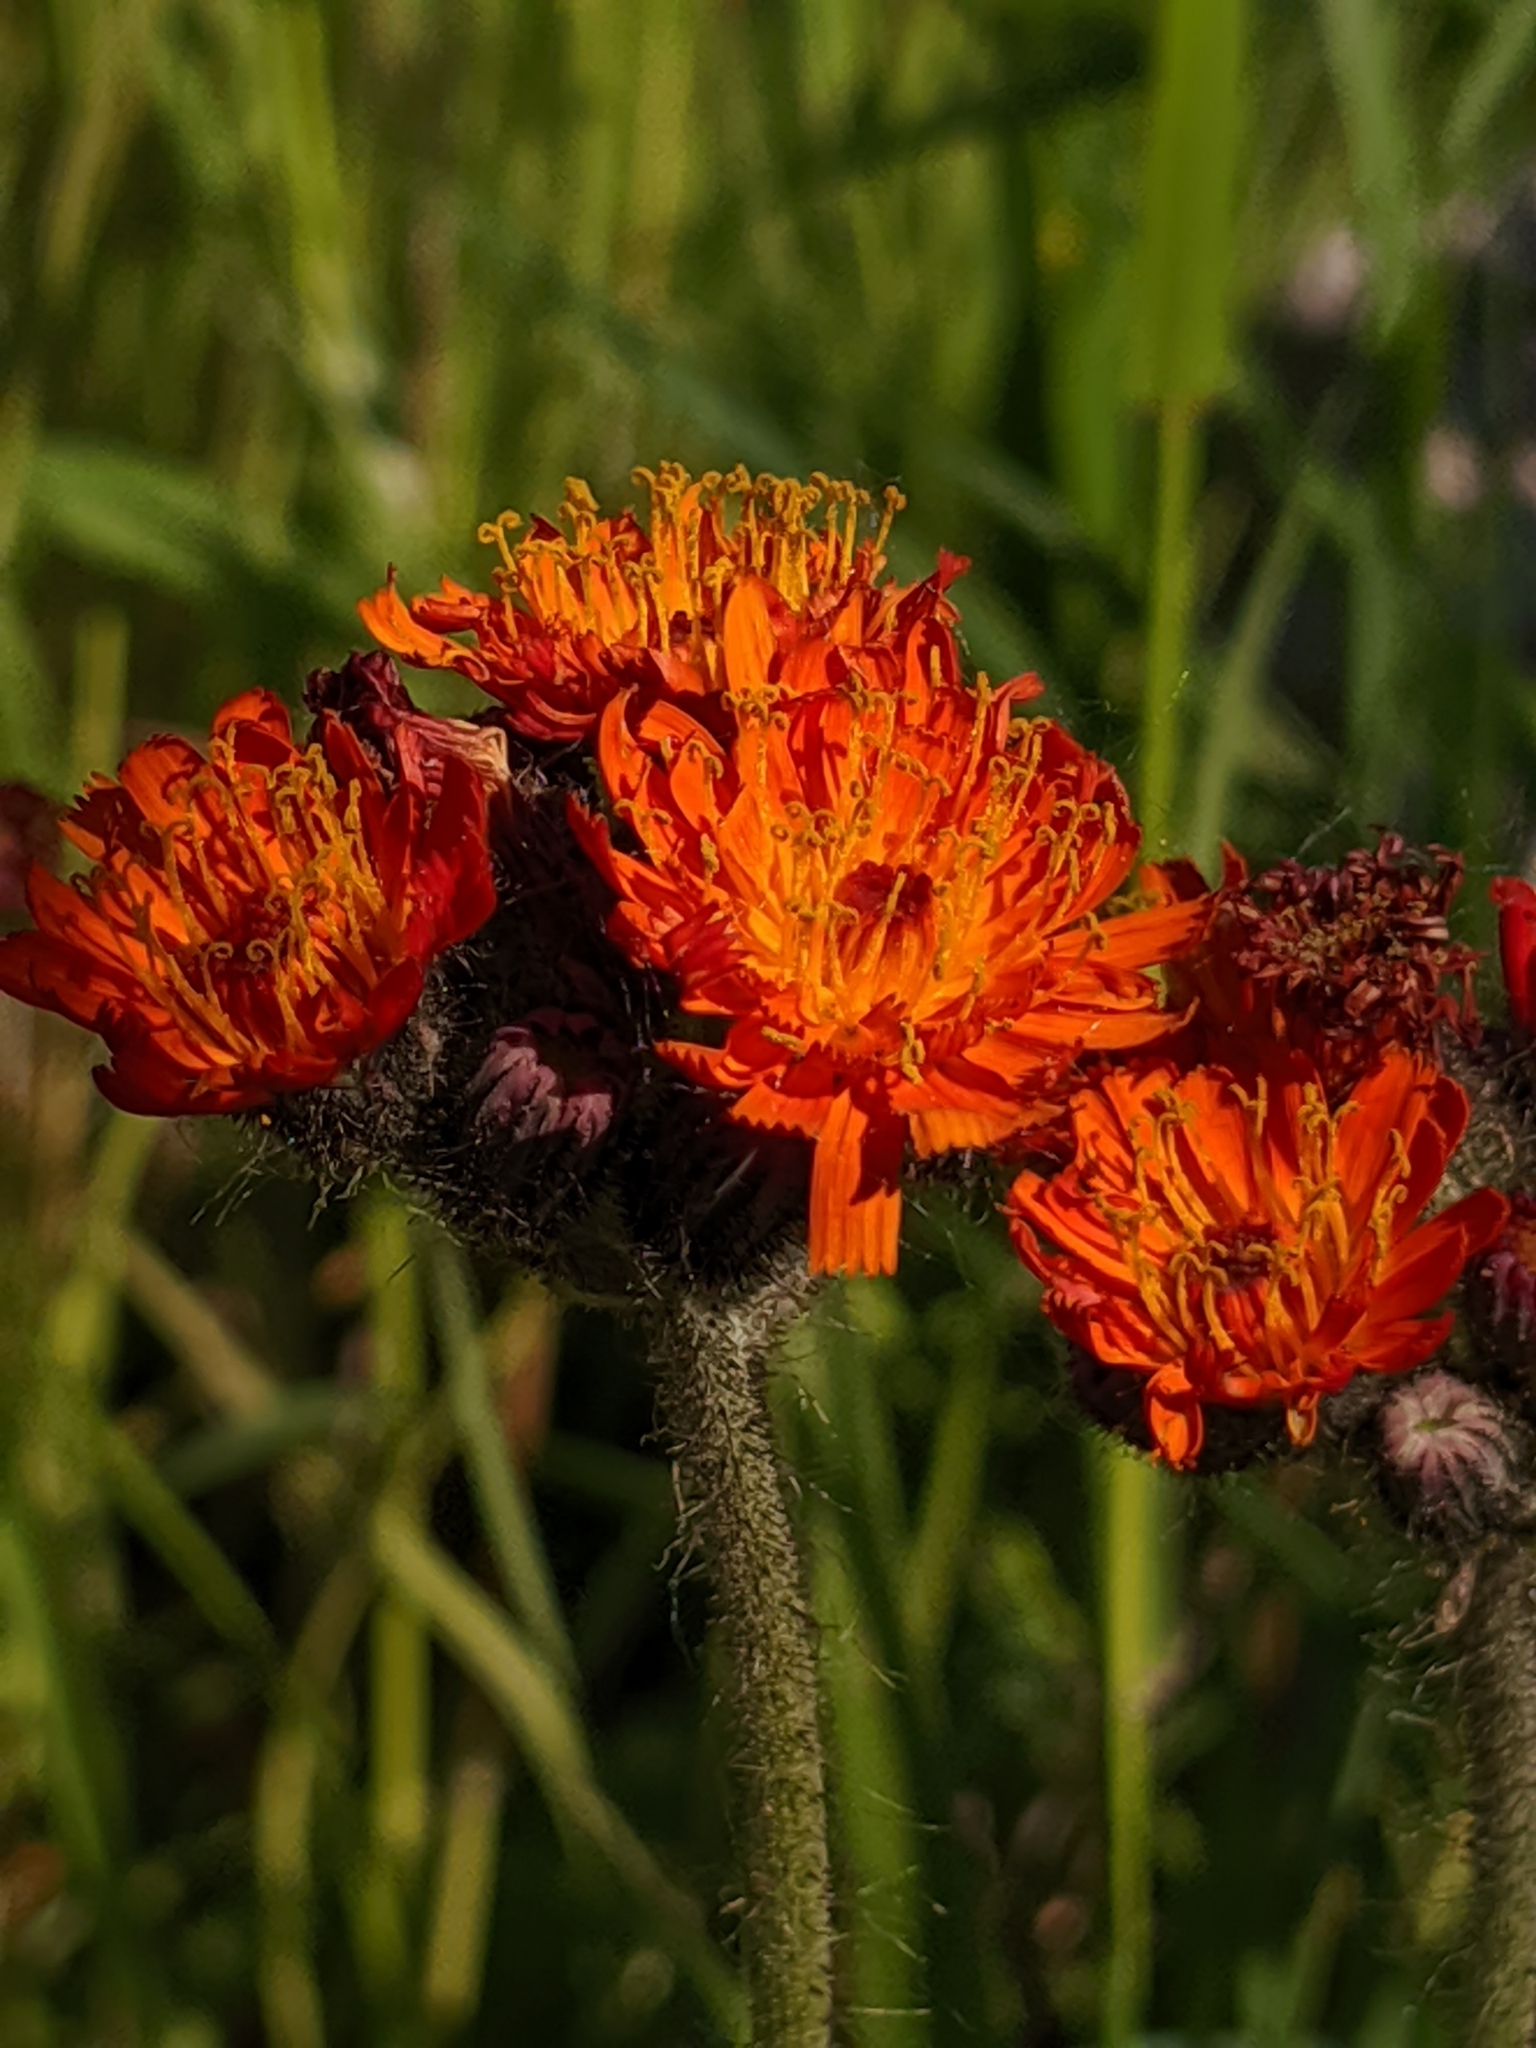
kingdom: Plantae
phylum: Tracheophyta
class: Magnoliopsida
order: Asterales
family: Asteraceae
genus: Pilosella
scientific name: Pilosella aurantiaca
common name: Fox-and-cubs
